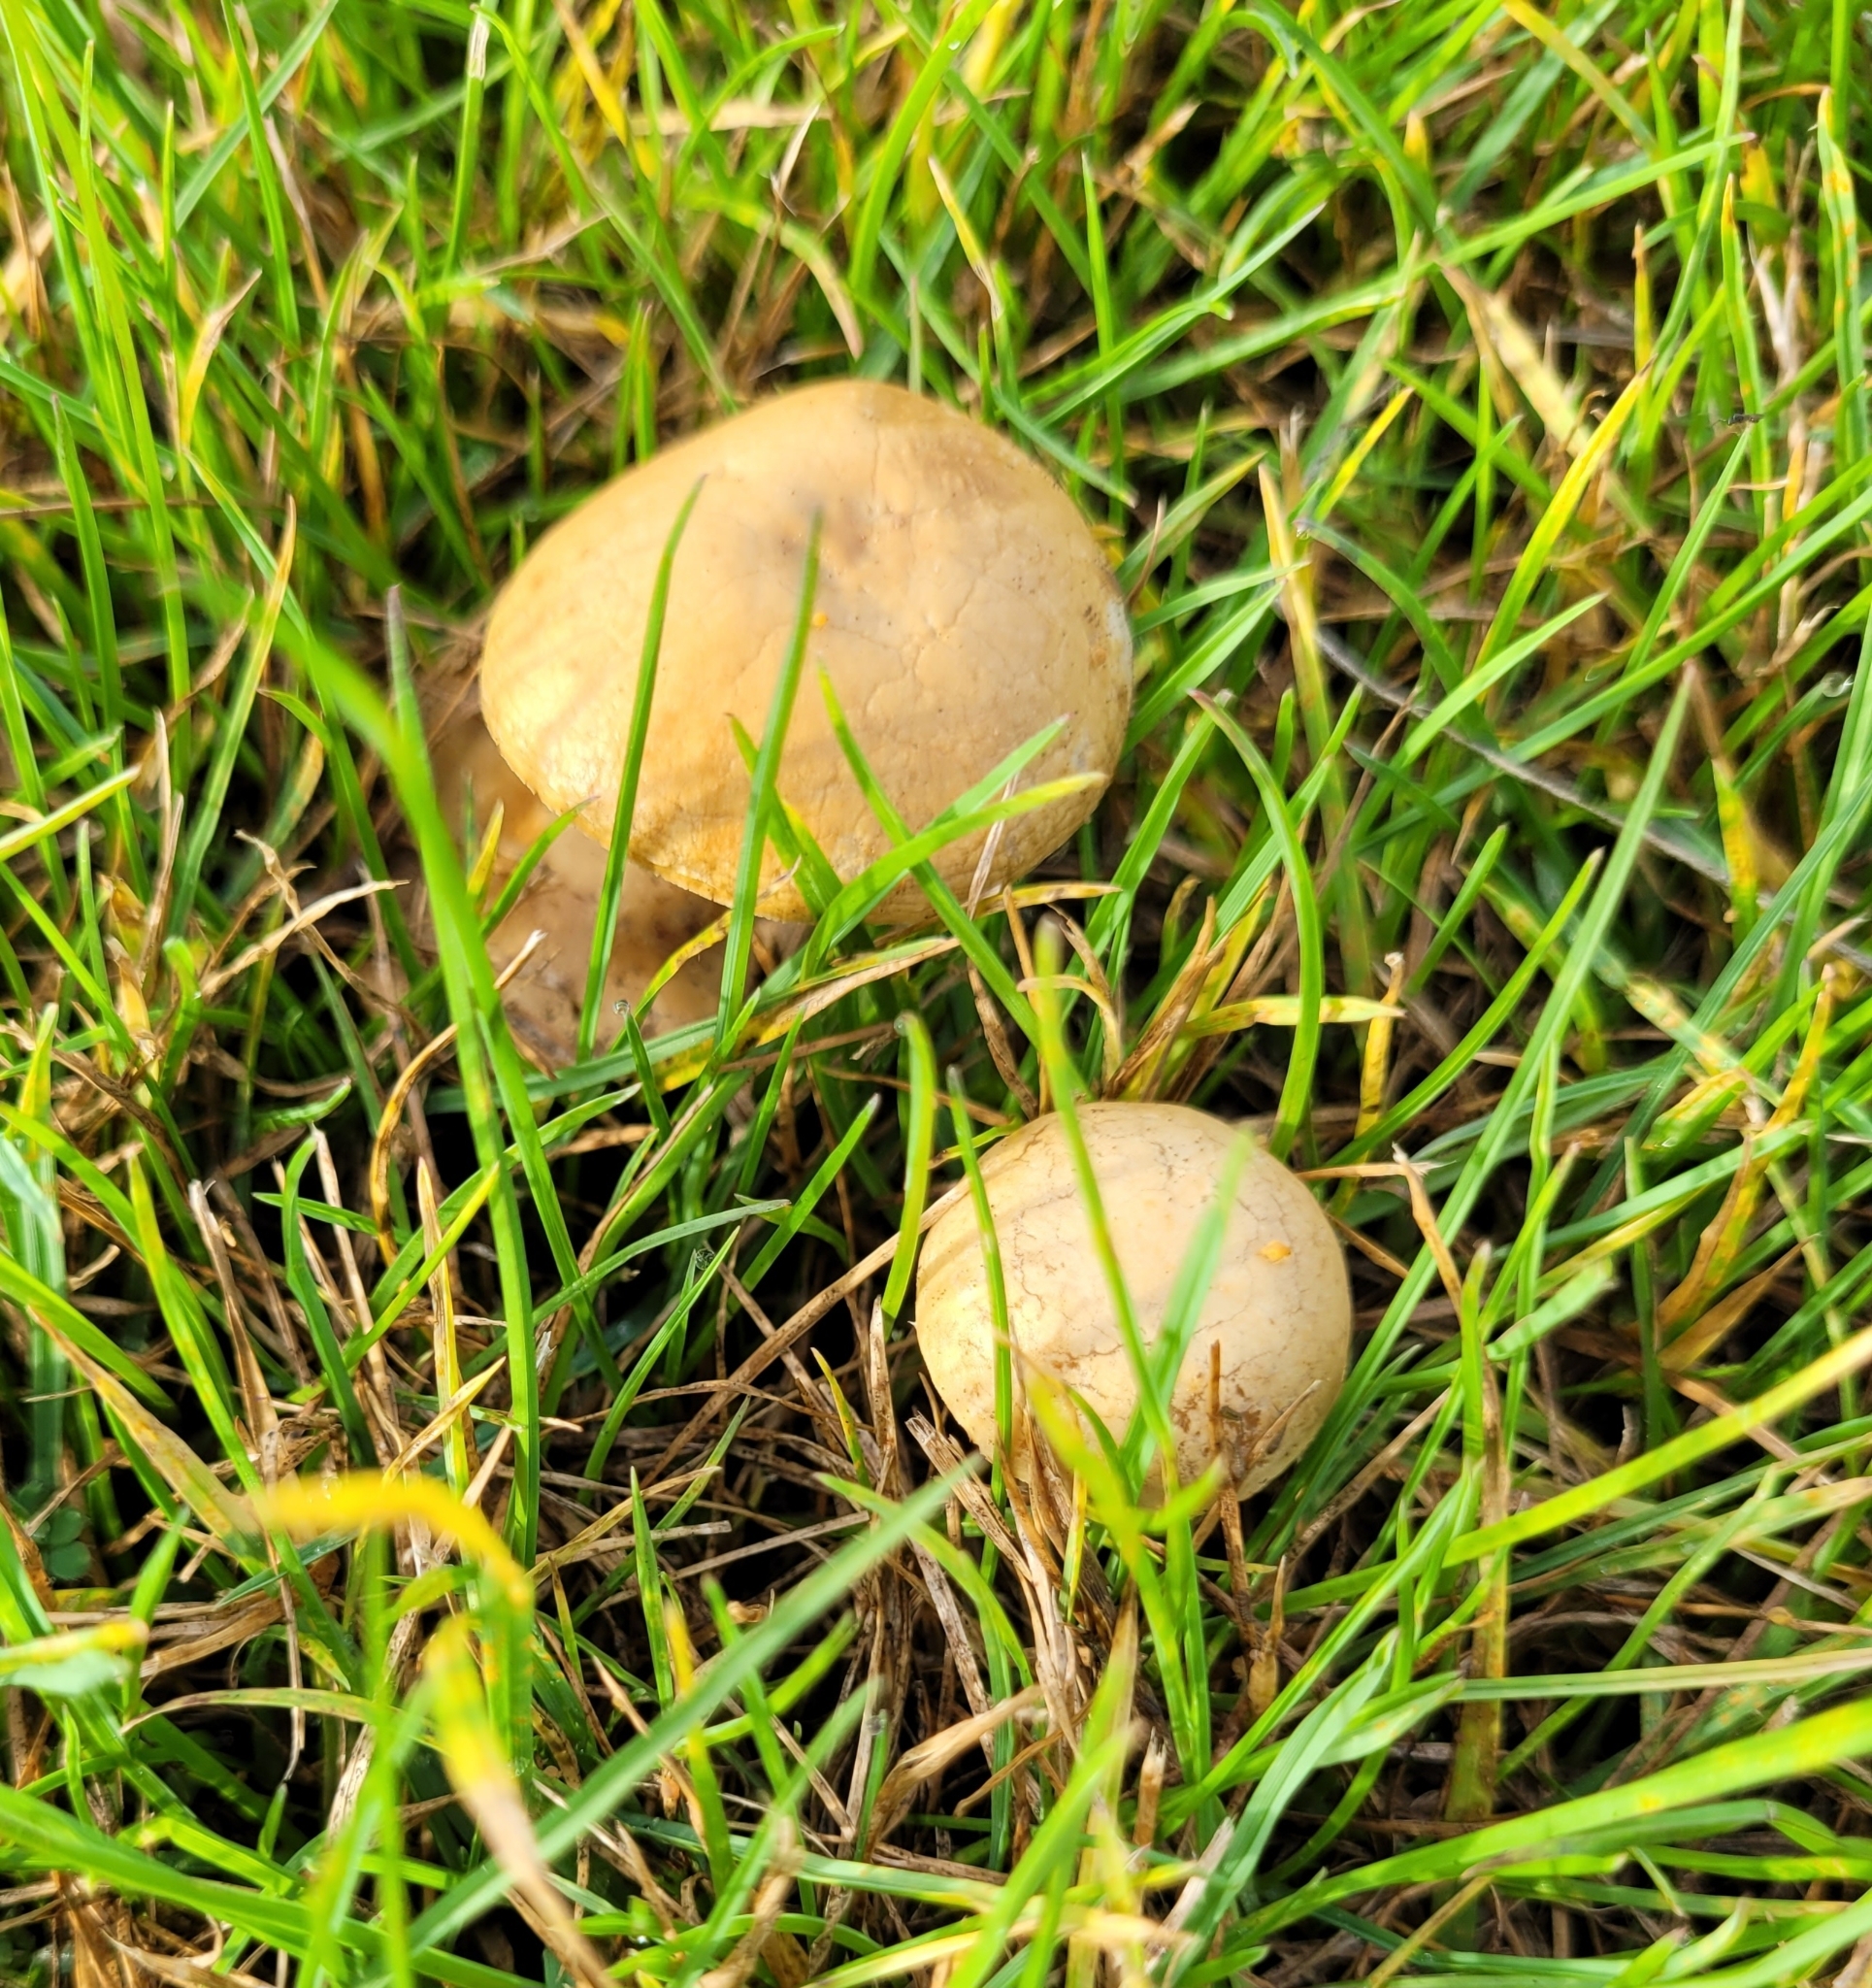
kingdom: Fungi
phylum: Basidiomycota
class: Agaricomycetes
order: Agaricales
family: Strophariaceae
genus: Agrocybe
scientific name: Agrocybe pediades
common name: Common fieldcap
